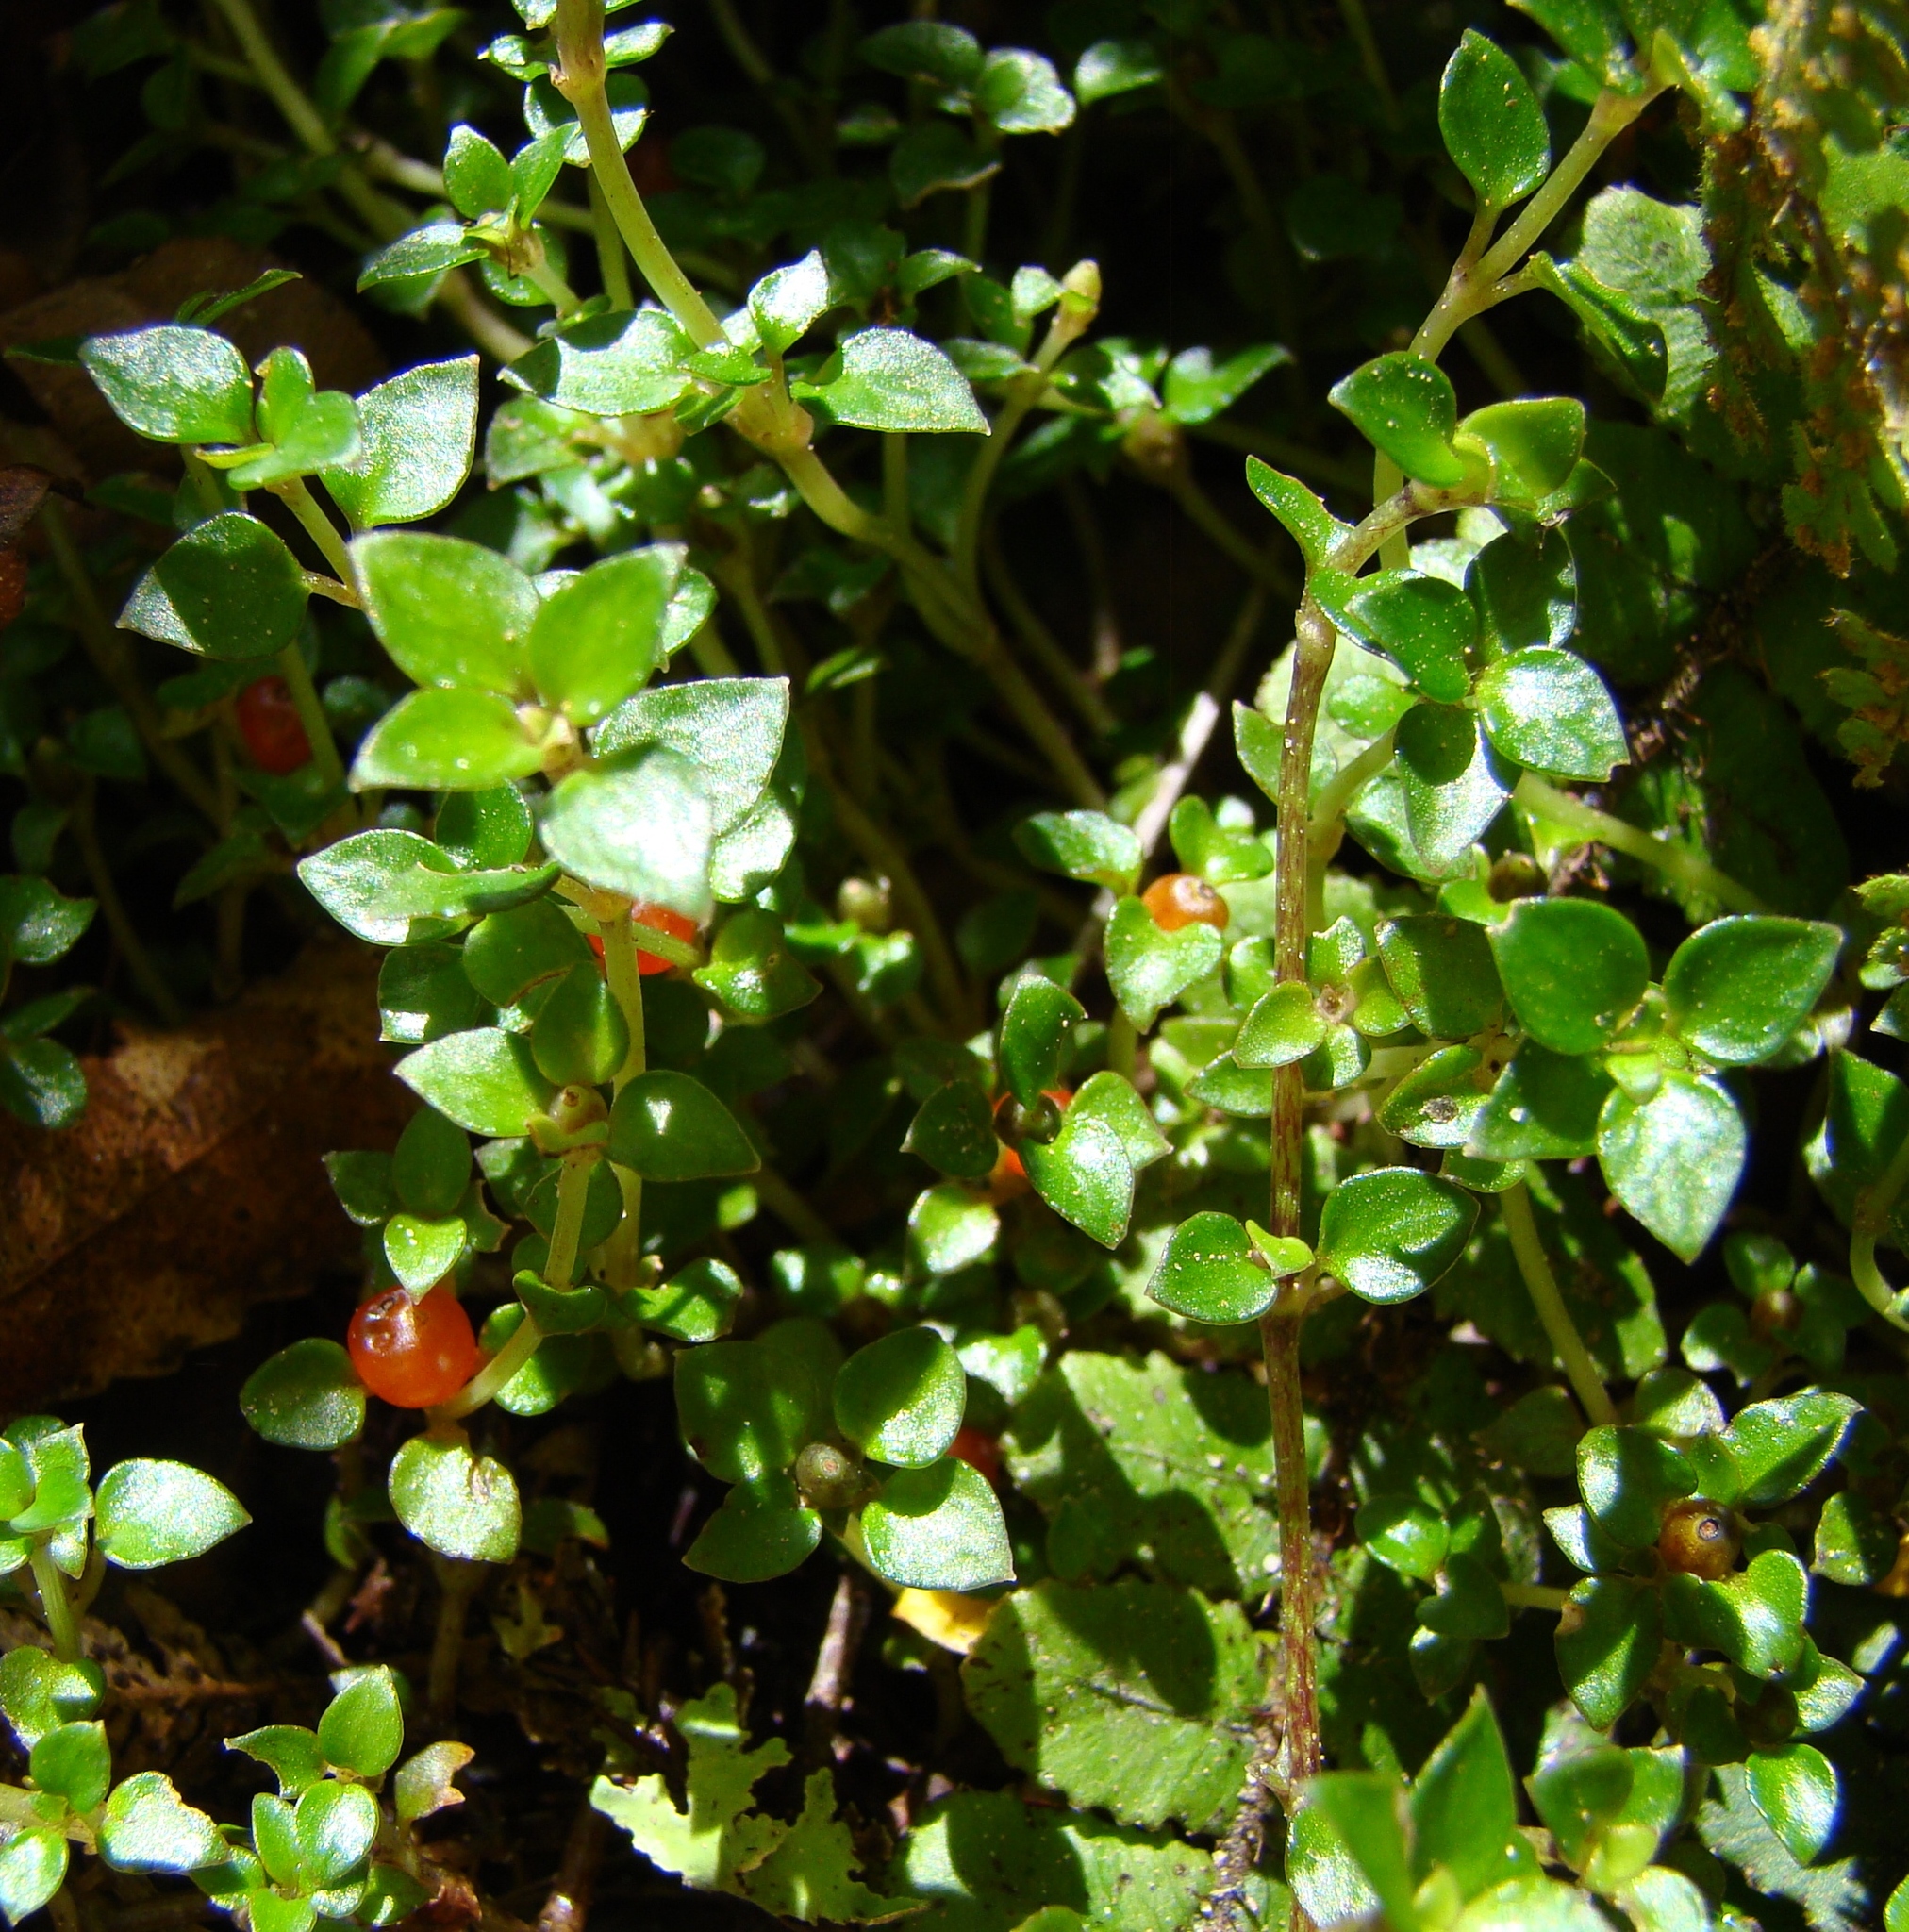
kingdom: Plantae
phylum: Tracheophyta
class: Magnoliopsida
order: Gentianales
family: Rubiaceae
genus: Nertera
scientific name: Nertera granadensis
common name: Beadplant
